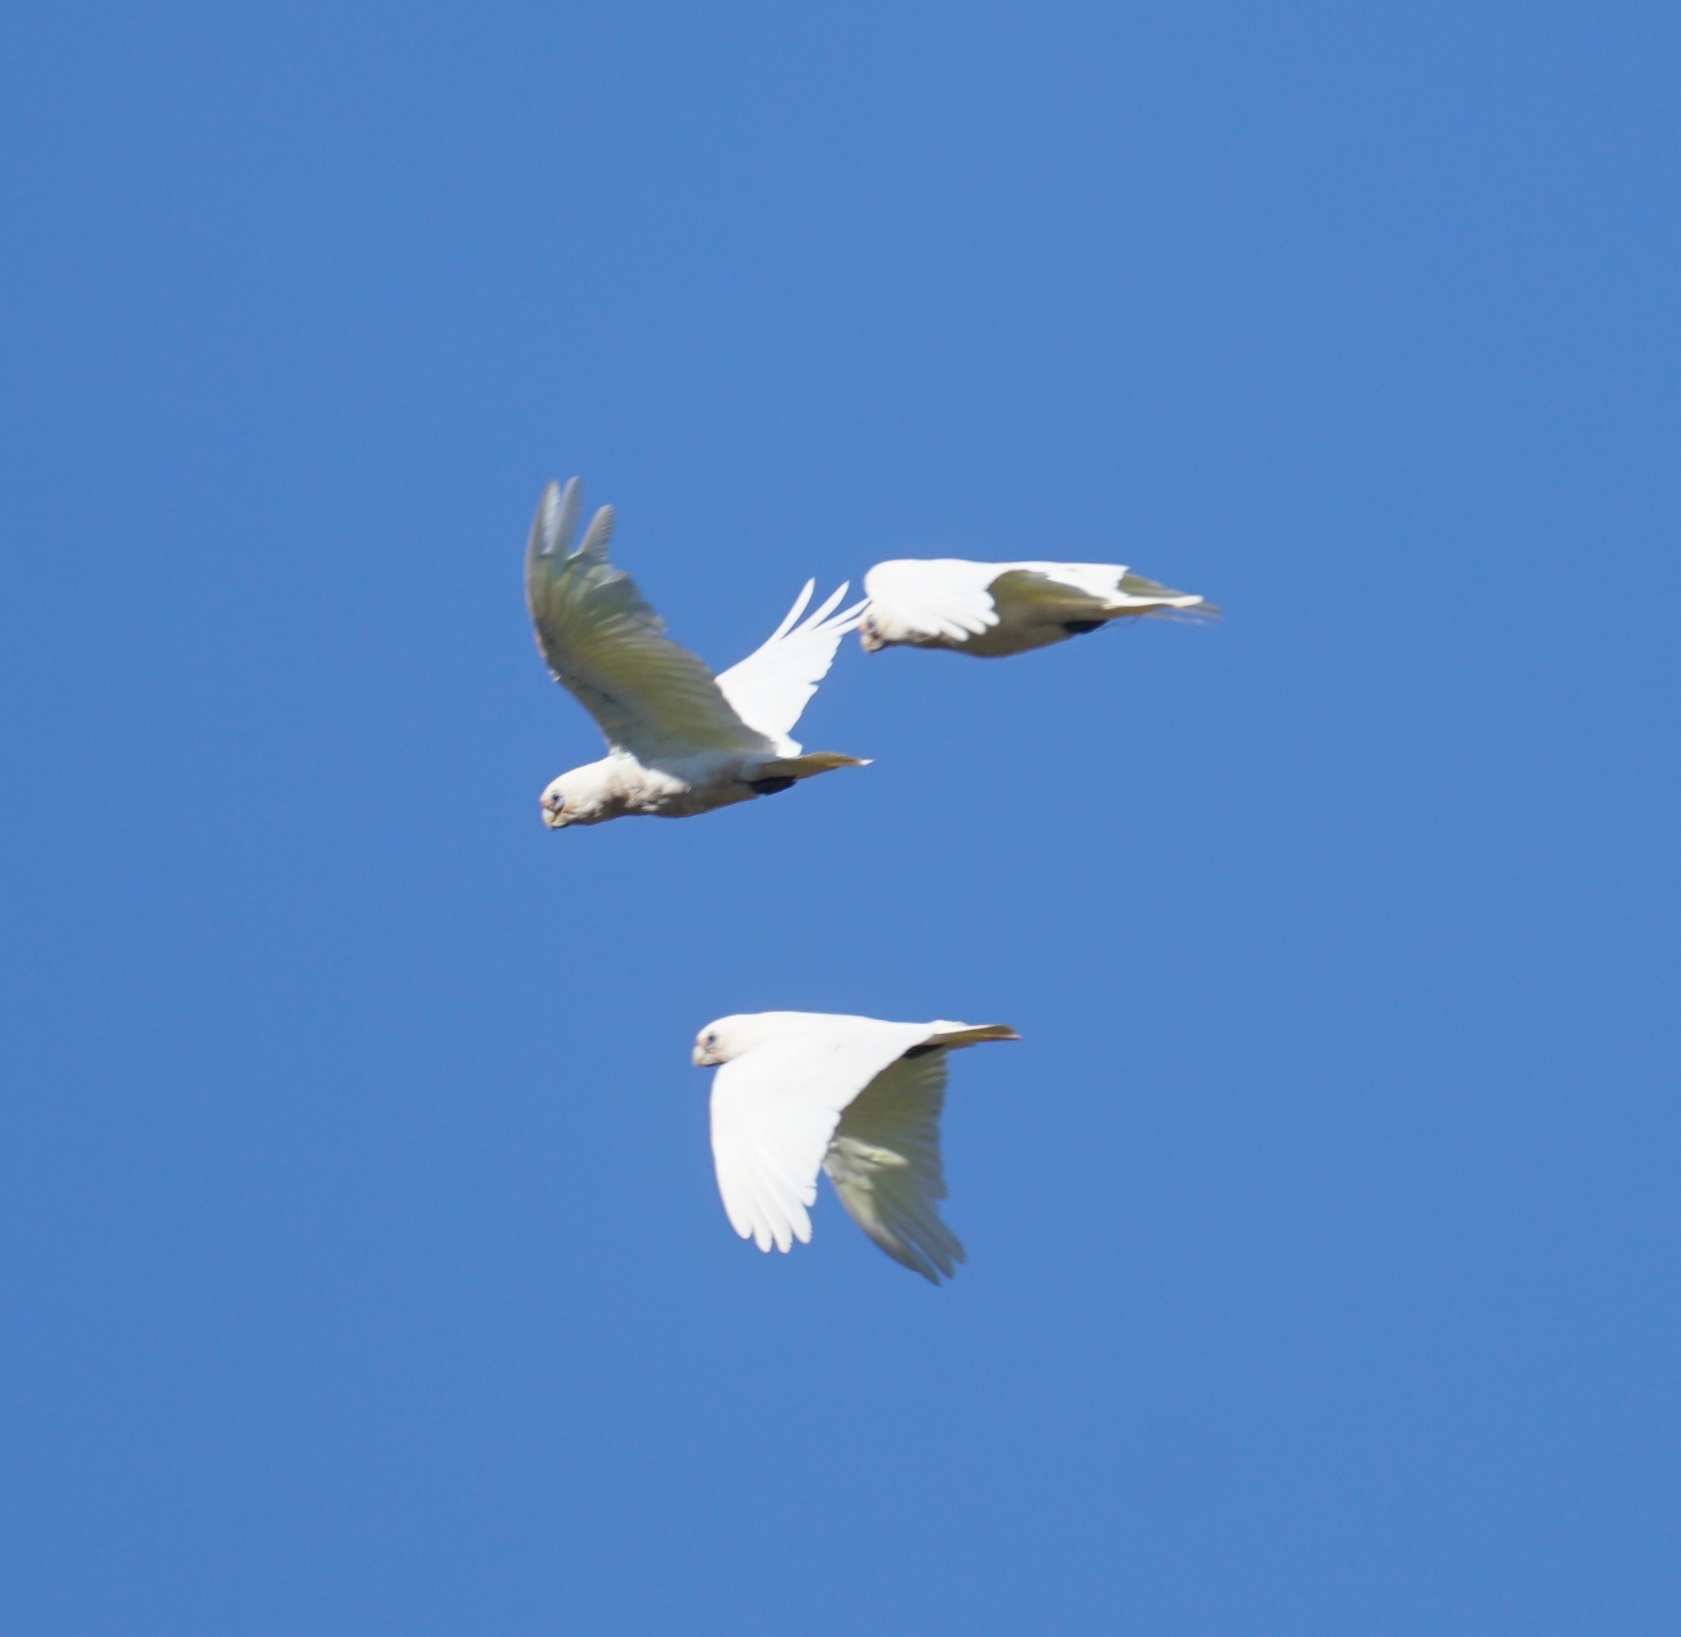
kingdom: Animalia
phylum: Chordata
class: Aves
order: Psittaciformes
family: Psittacidae
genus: Cacatua
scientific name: Cacatua sanguinea
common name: Little corella
